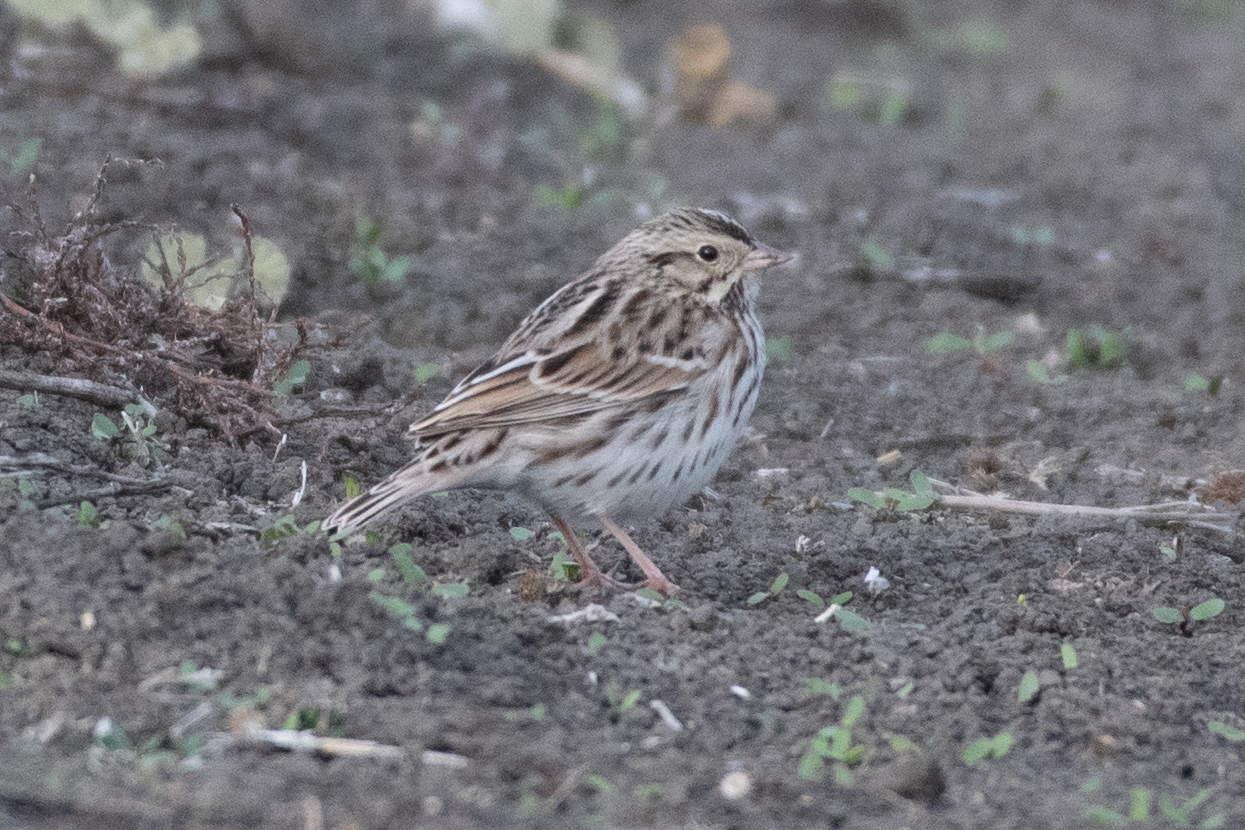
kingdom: Animalia
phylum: Chordata
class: Aves
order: Passeriformes
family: Passerellidae
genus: Passerculus
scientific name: Passerculus sandwichensis
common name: Savannah sparrow
